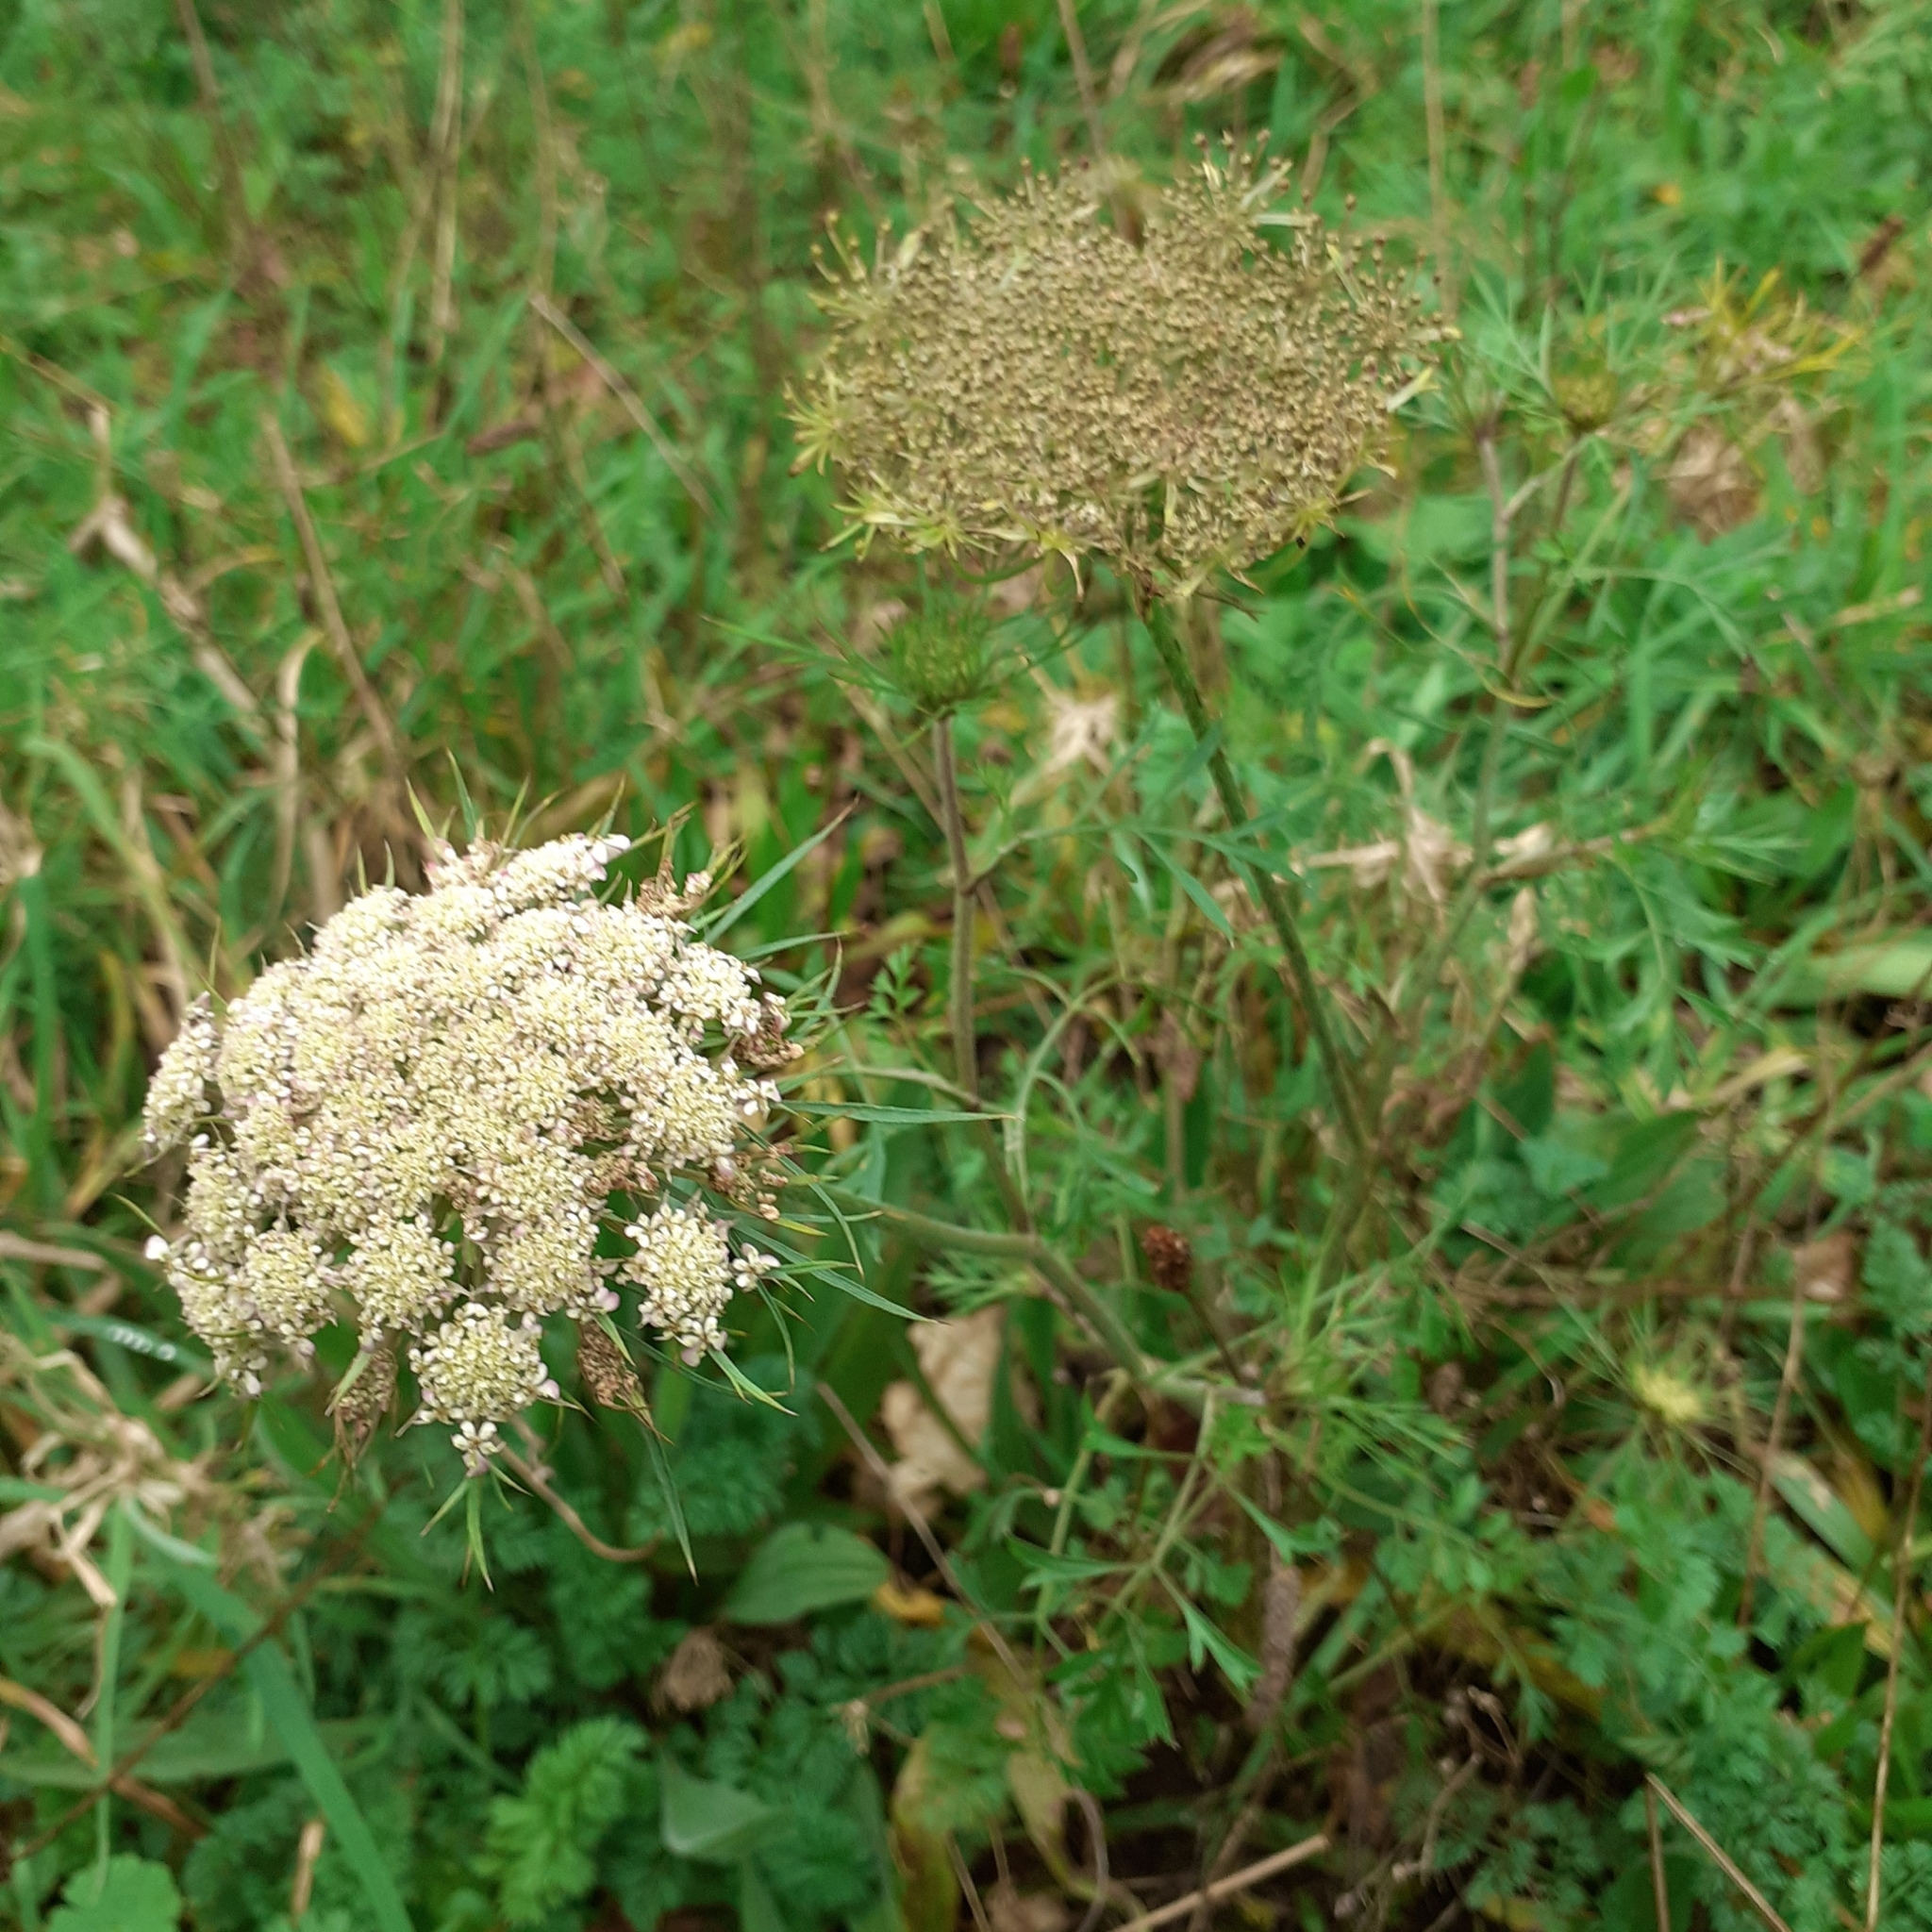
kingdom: Plantae
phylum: Tracheophyta
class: Magnoliopsida
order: Apiales
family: Apiaceae
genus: Daucus
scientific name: Daucus carota
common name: Wild carrot
